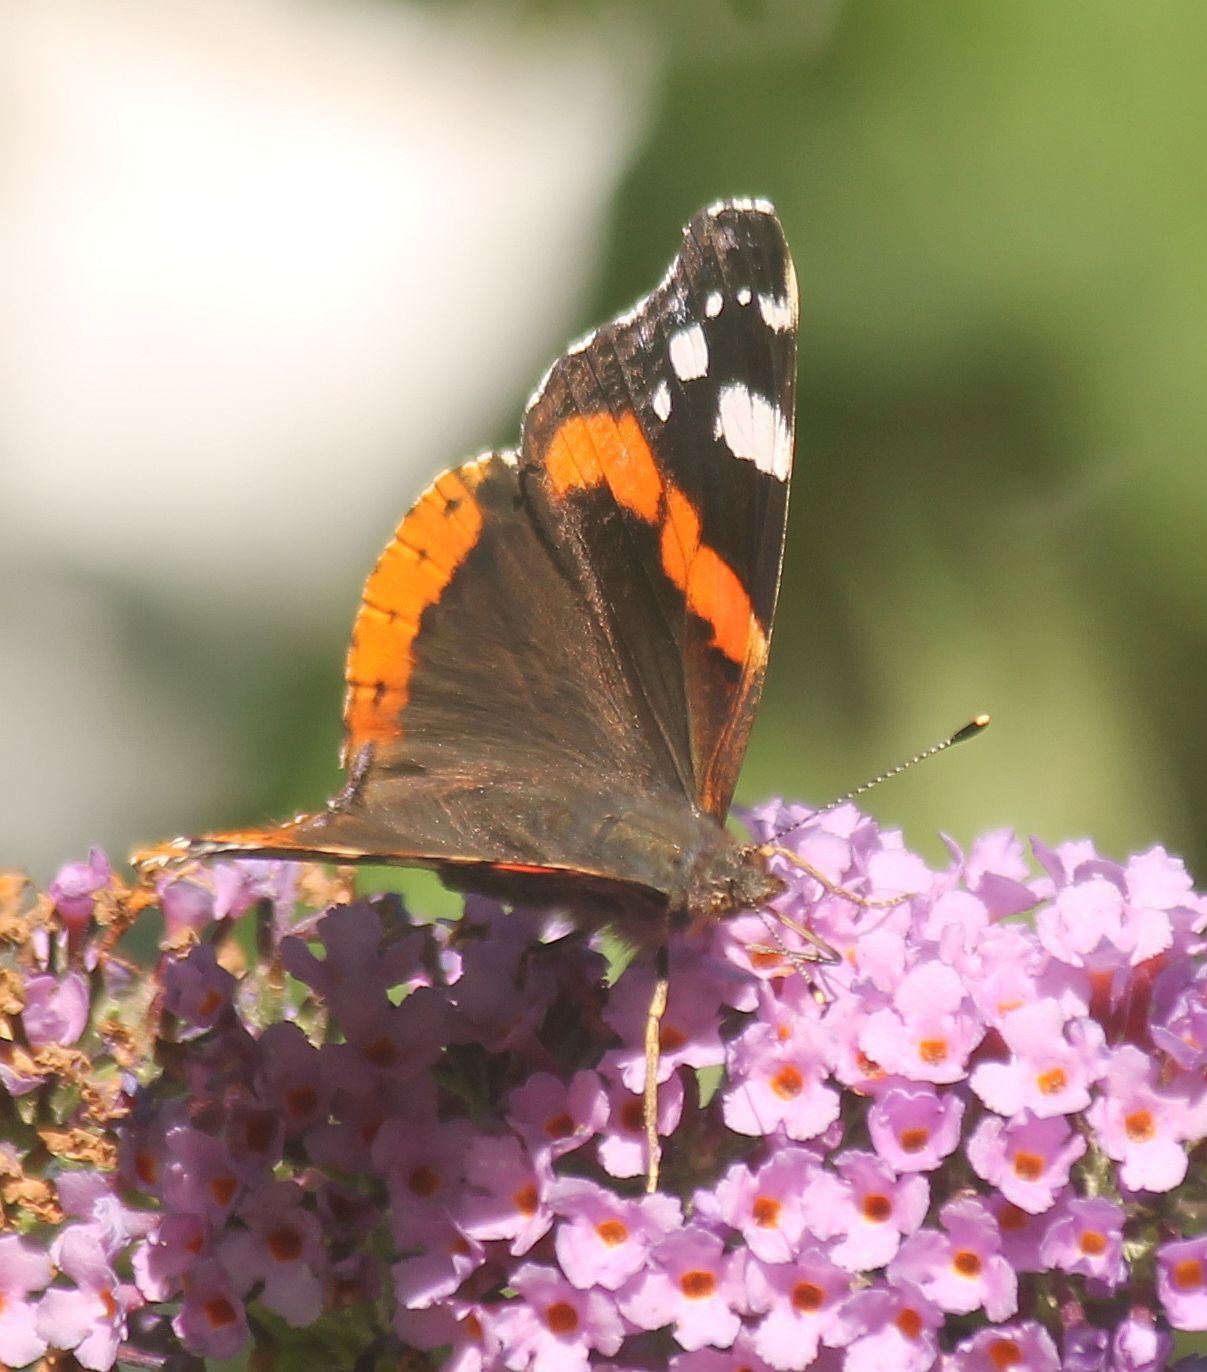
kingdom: Animalia
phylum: Arthropoda
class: Insecta
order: Lepidoptera
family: Nymphalidae
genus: Vanessa
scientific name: Vanessa atalanta
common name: Red admiral
